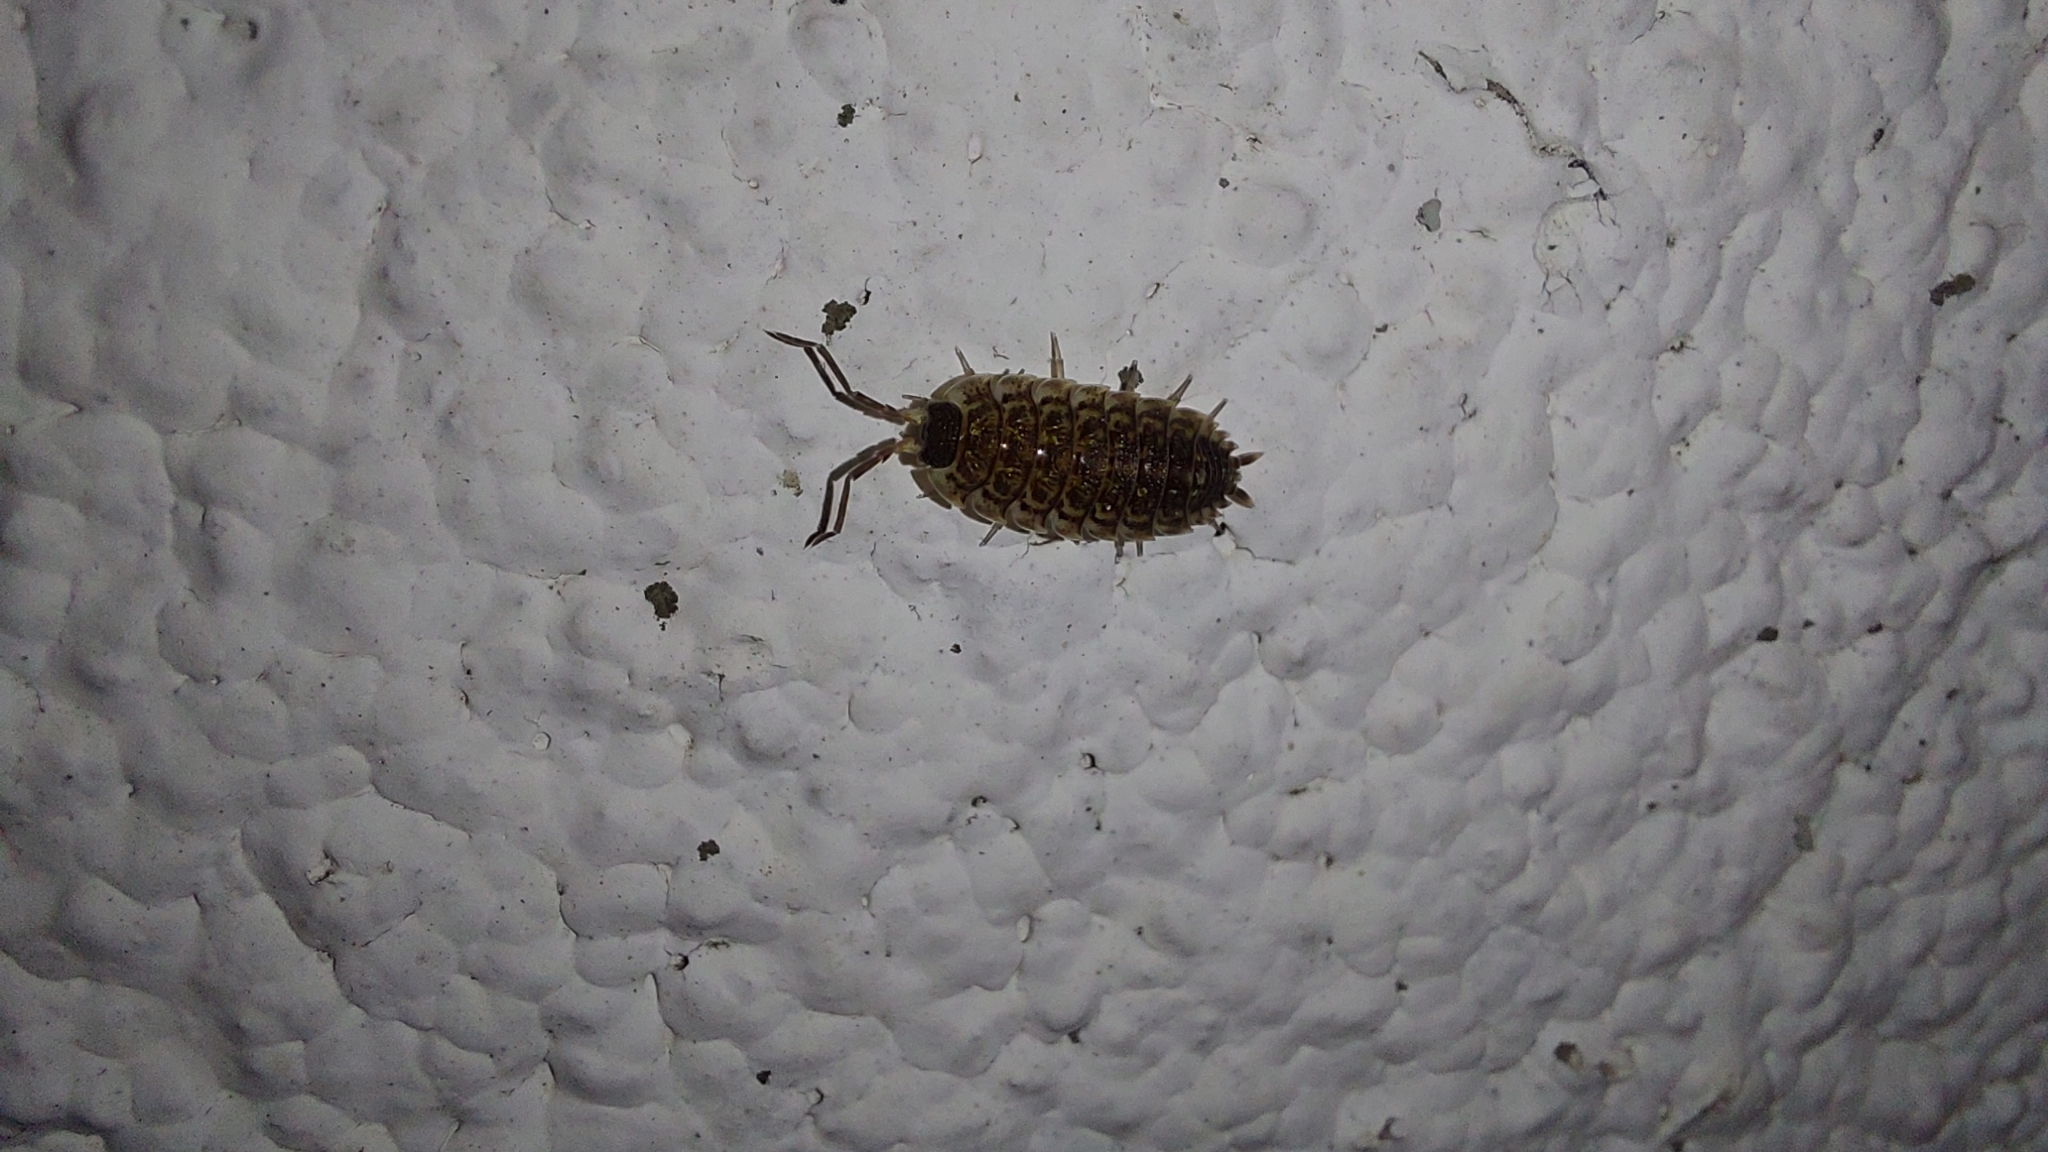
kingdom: Animalia
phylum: Arthropoda
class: Malacostraca
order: Isopoda
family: Porcellionidae
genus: Porcellio
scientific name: Porcellio spinicornis
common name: Painted woodlouse
